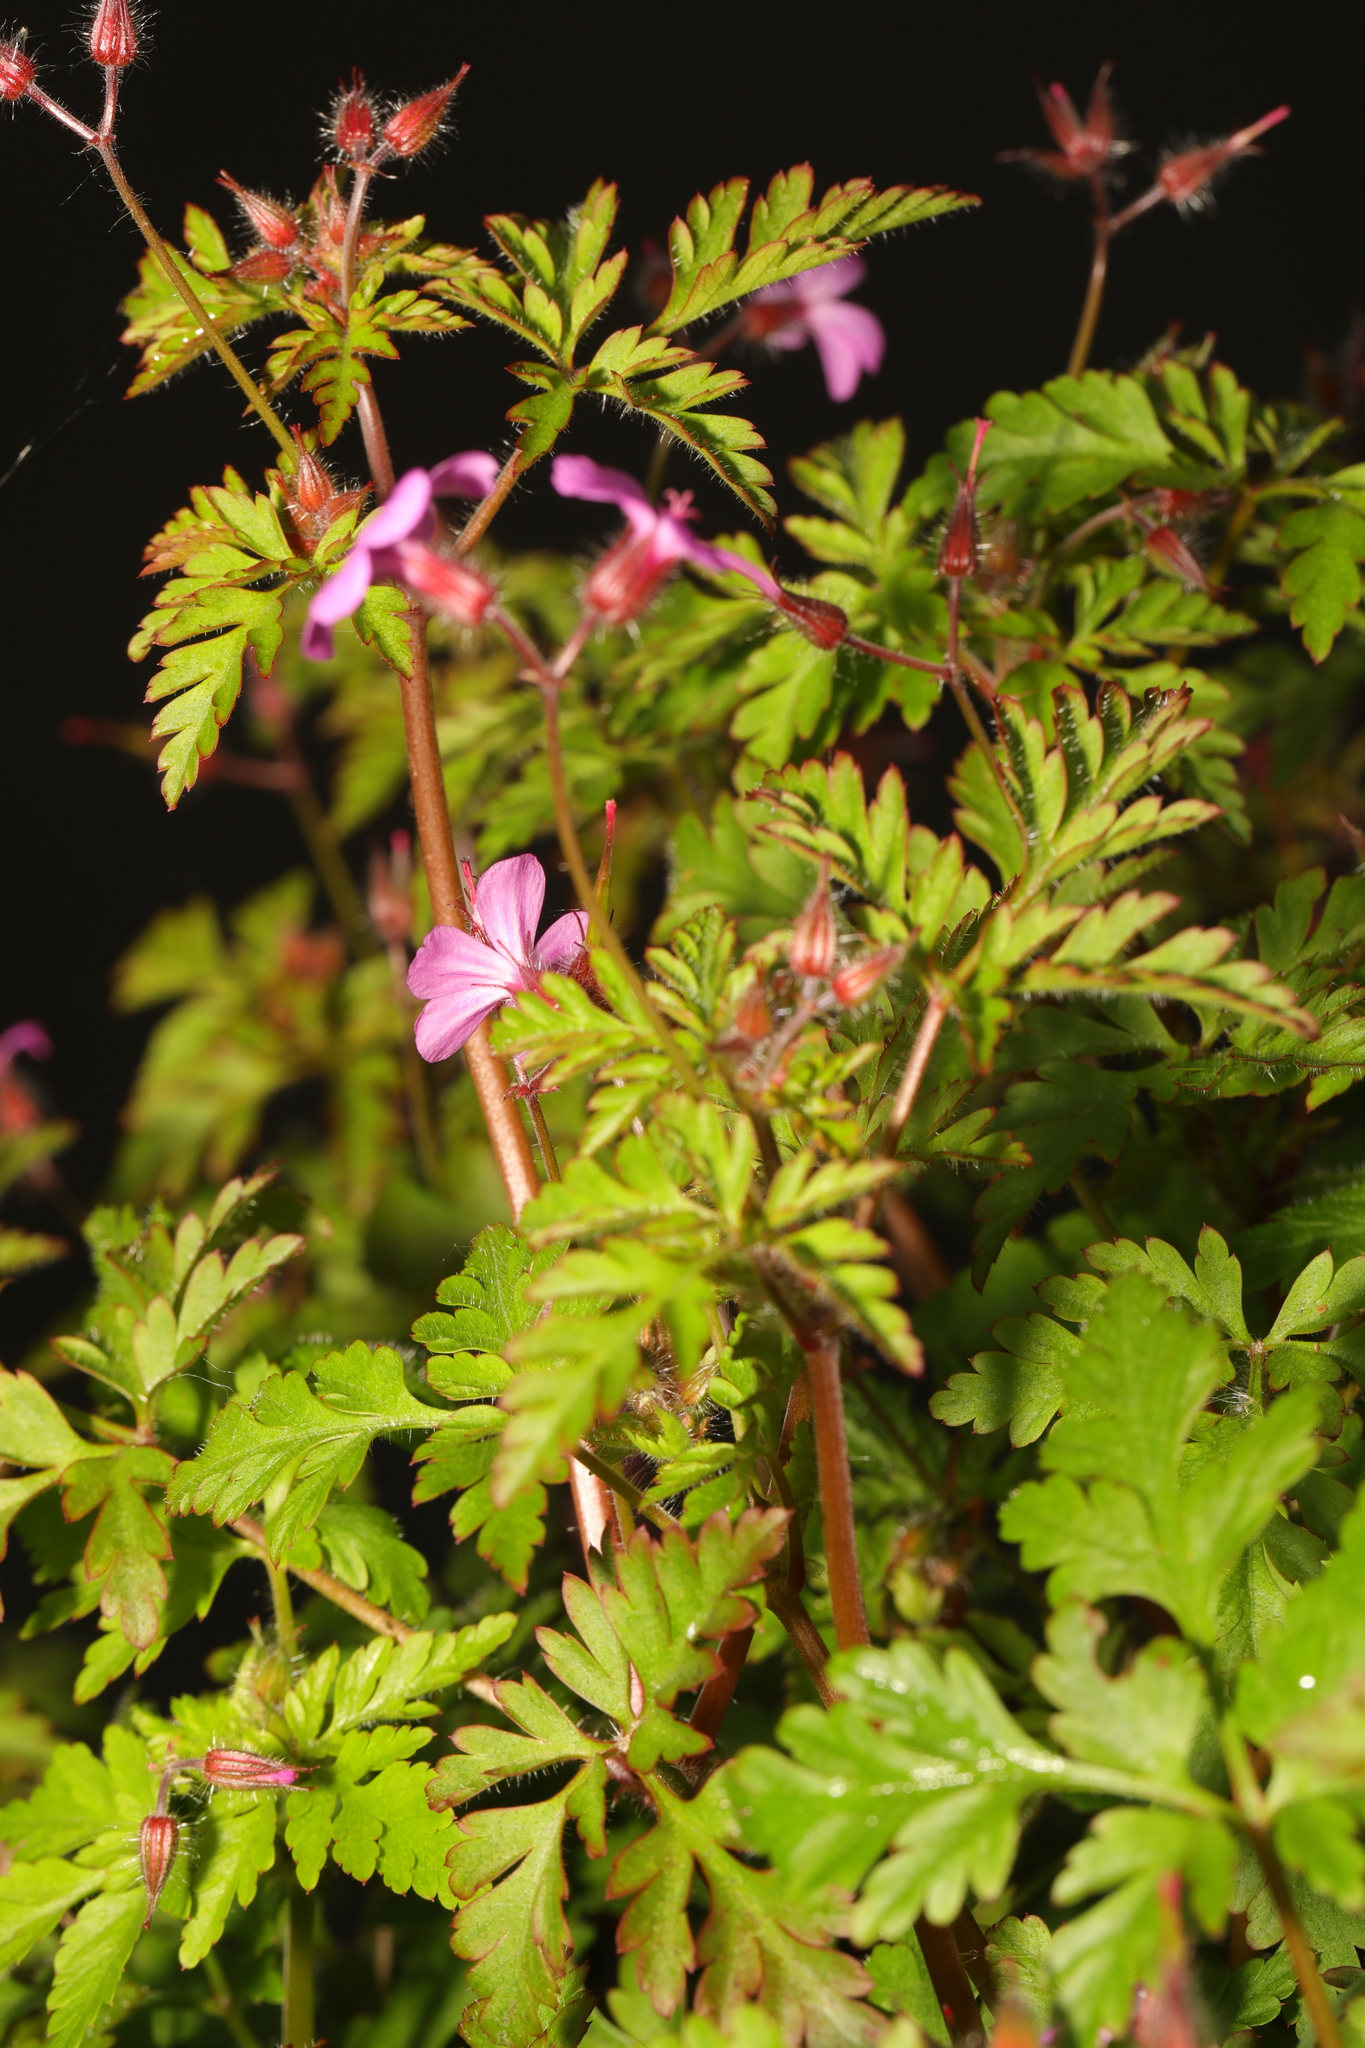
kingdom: Plantae
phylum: Tracheophyta
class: Magnoliopsida
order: Geraniales
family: Geraniaceae
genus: Geranium
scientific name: Geranium robertianum
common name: Herb-robert
